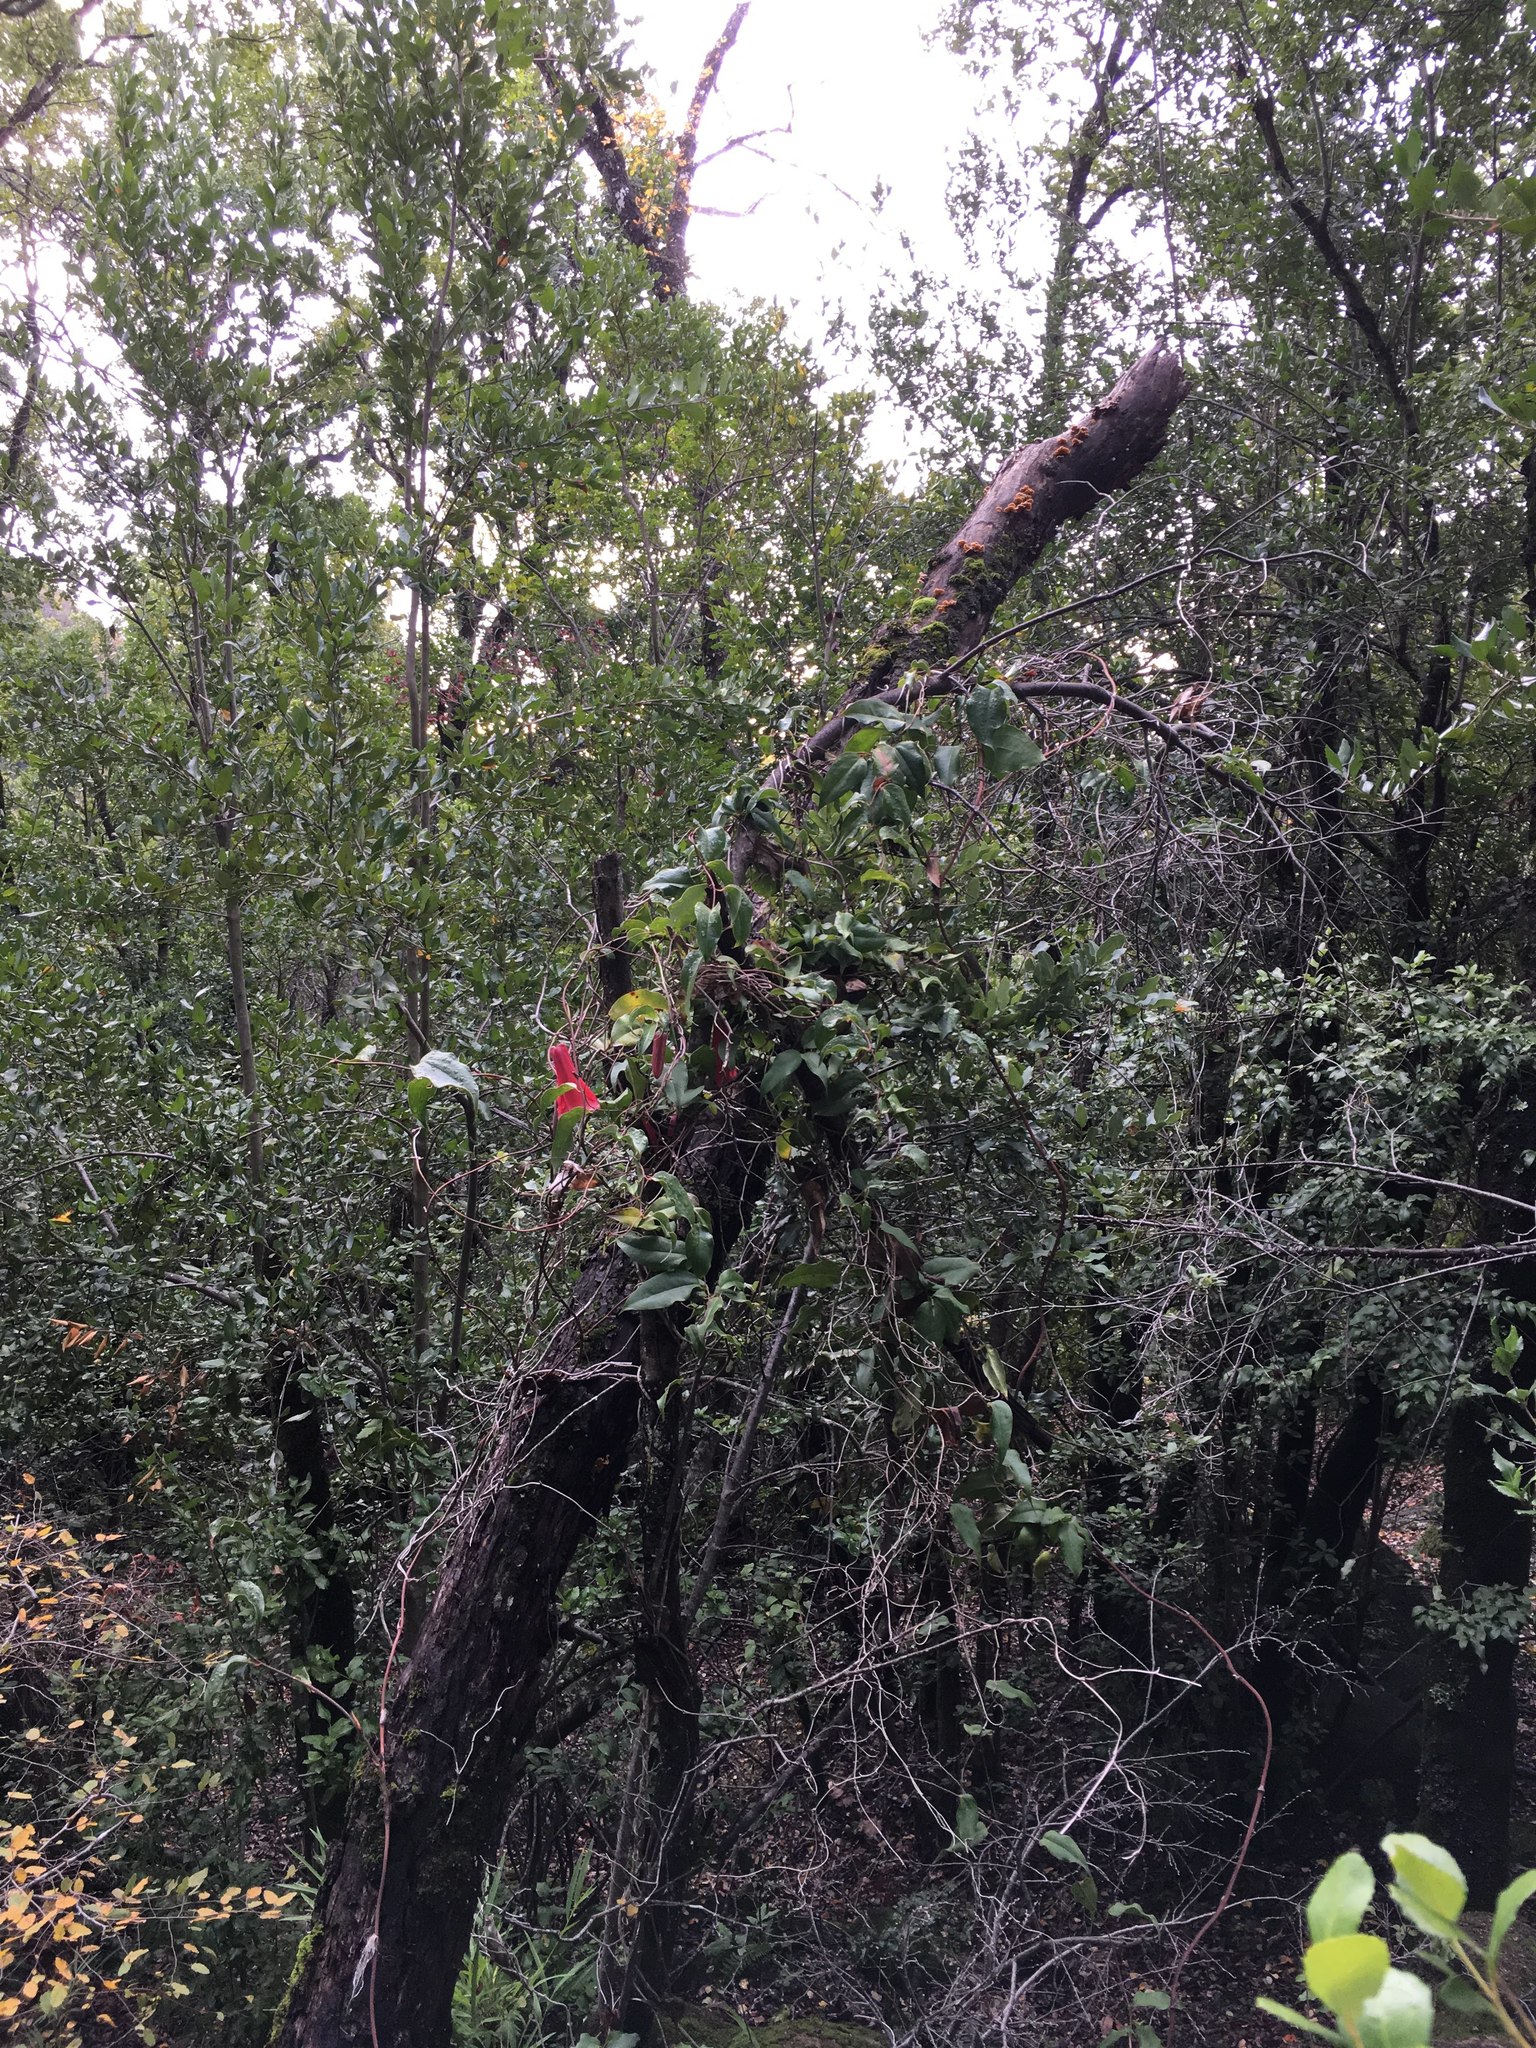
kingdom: Plantae
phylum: Tracheophyta
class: Liliopsida
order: Liliales
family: Philesiaceae
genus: Lapageria
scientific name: Lapageria rosea
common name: Chilean-bellflower
